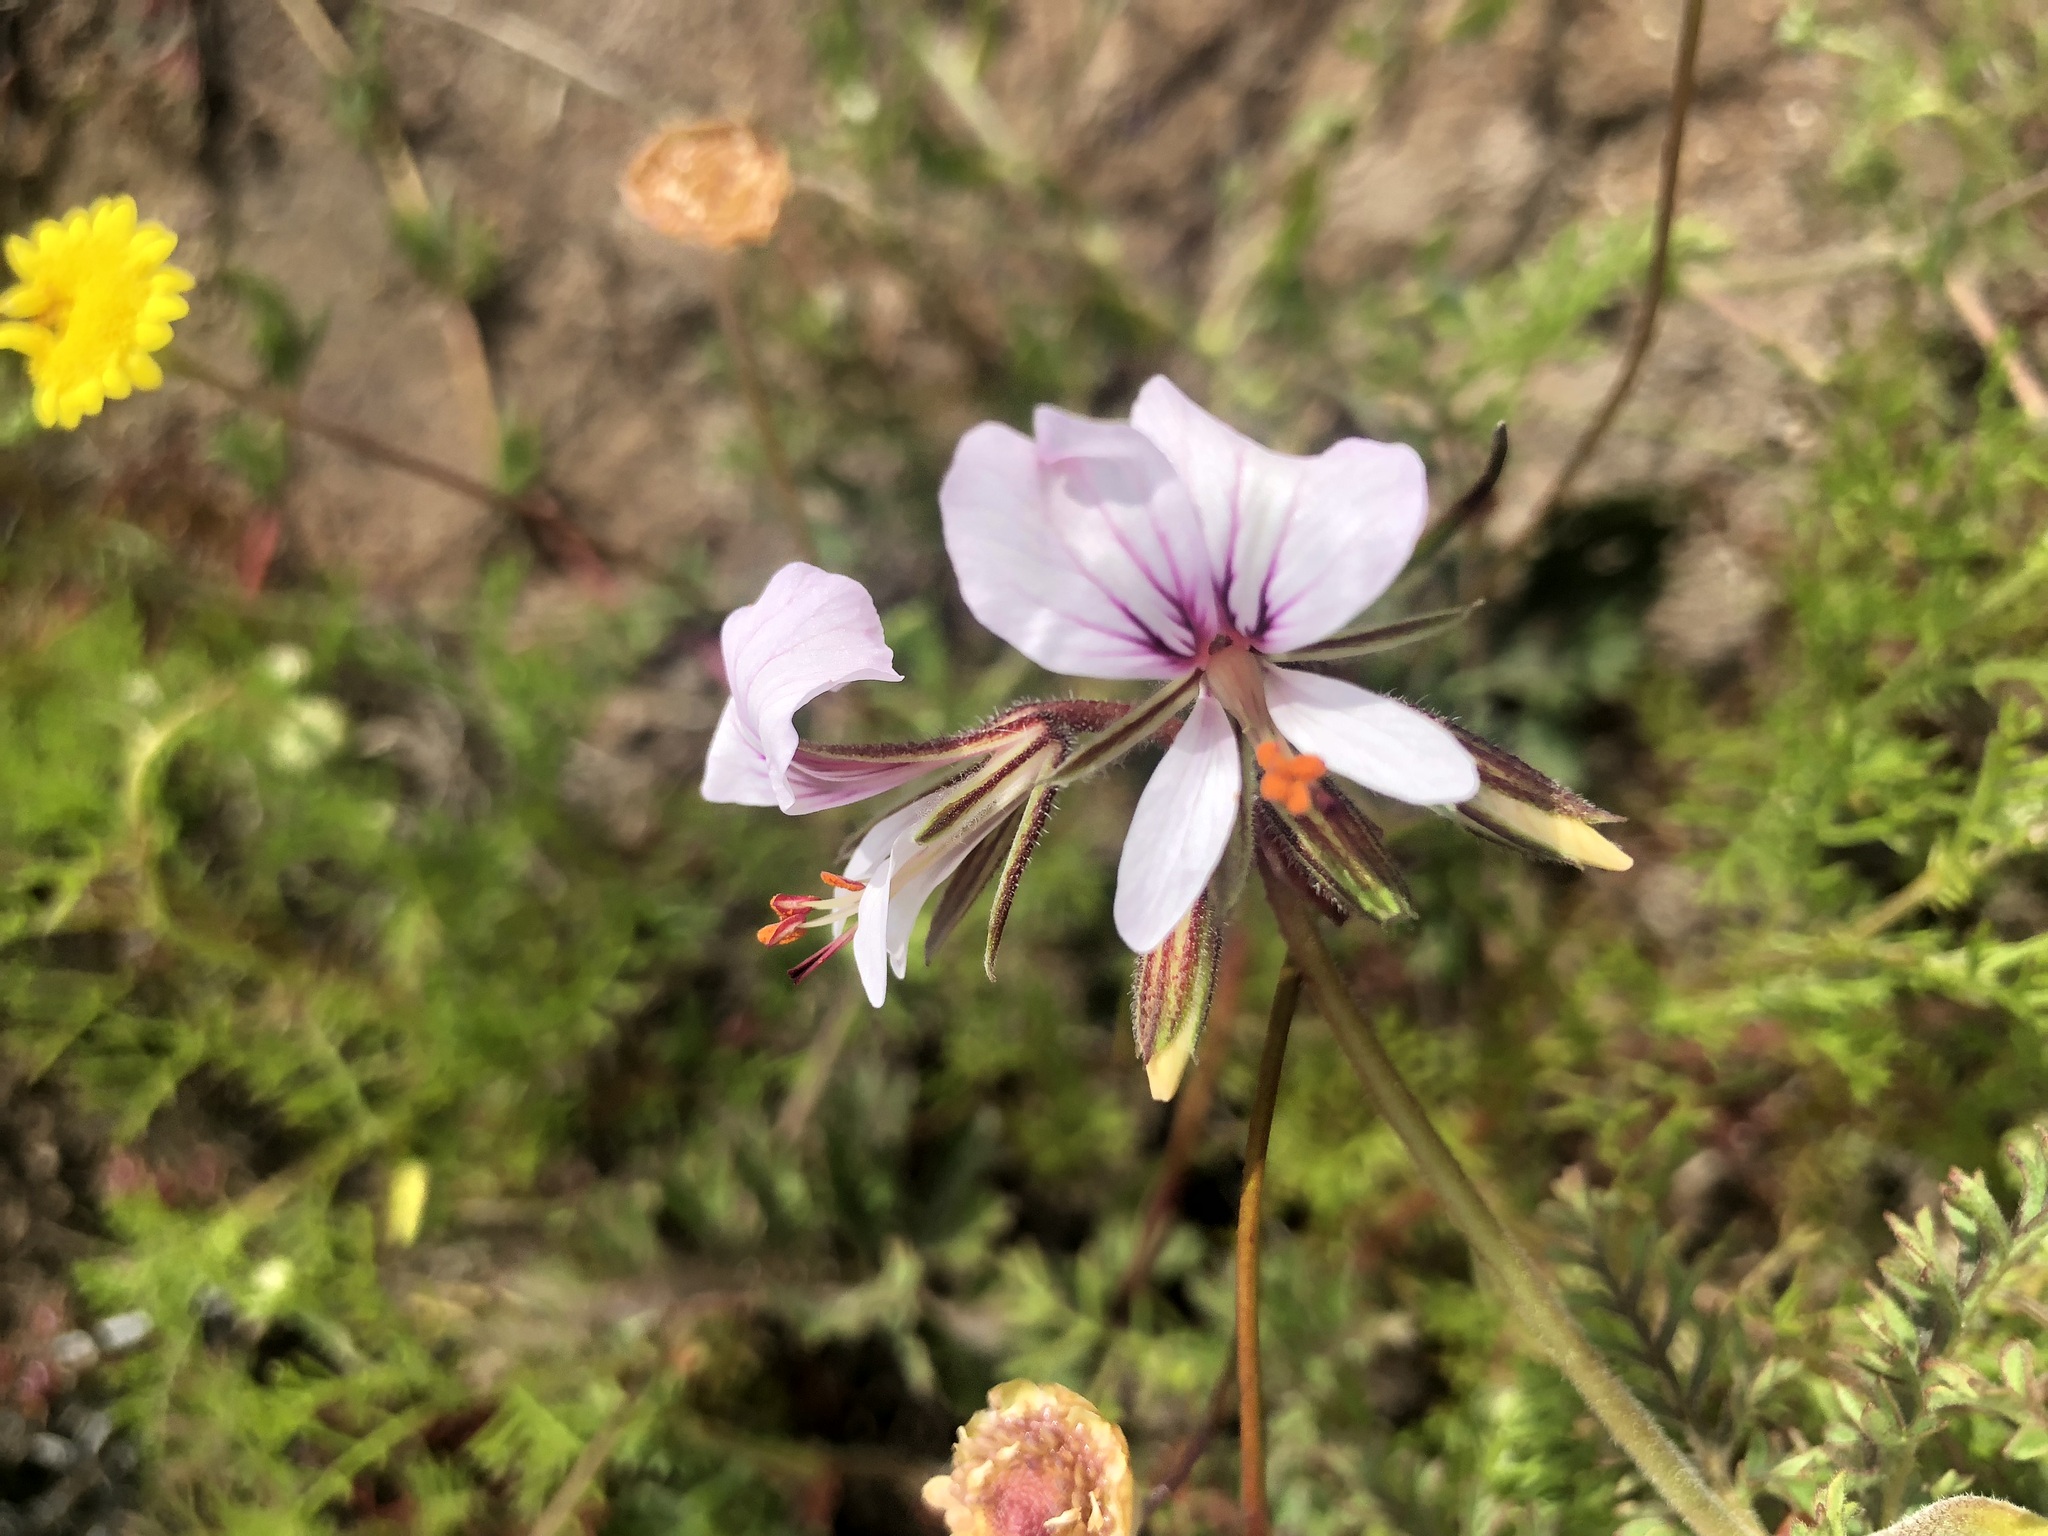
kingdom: Plantae
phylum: Tracheophyta
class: Magnoliopsida
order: Geraniales
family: Geraniaceae
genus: Pelargonium
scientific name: Pelargonium myrrhifolium
